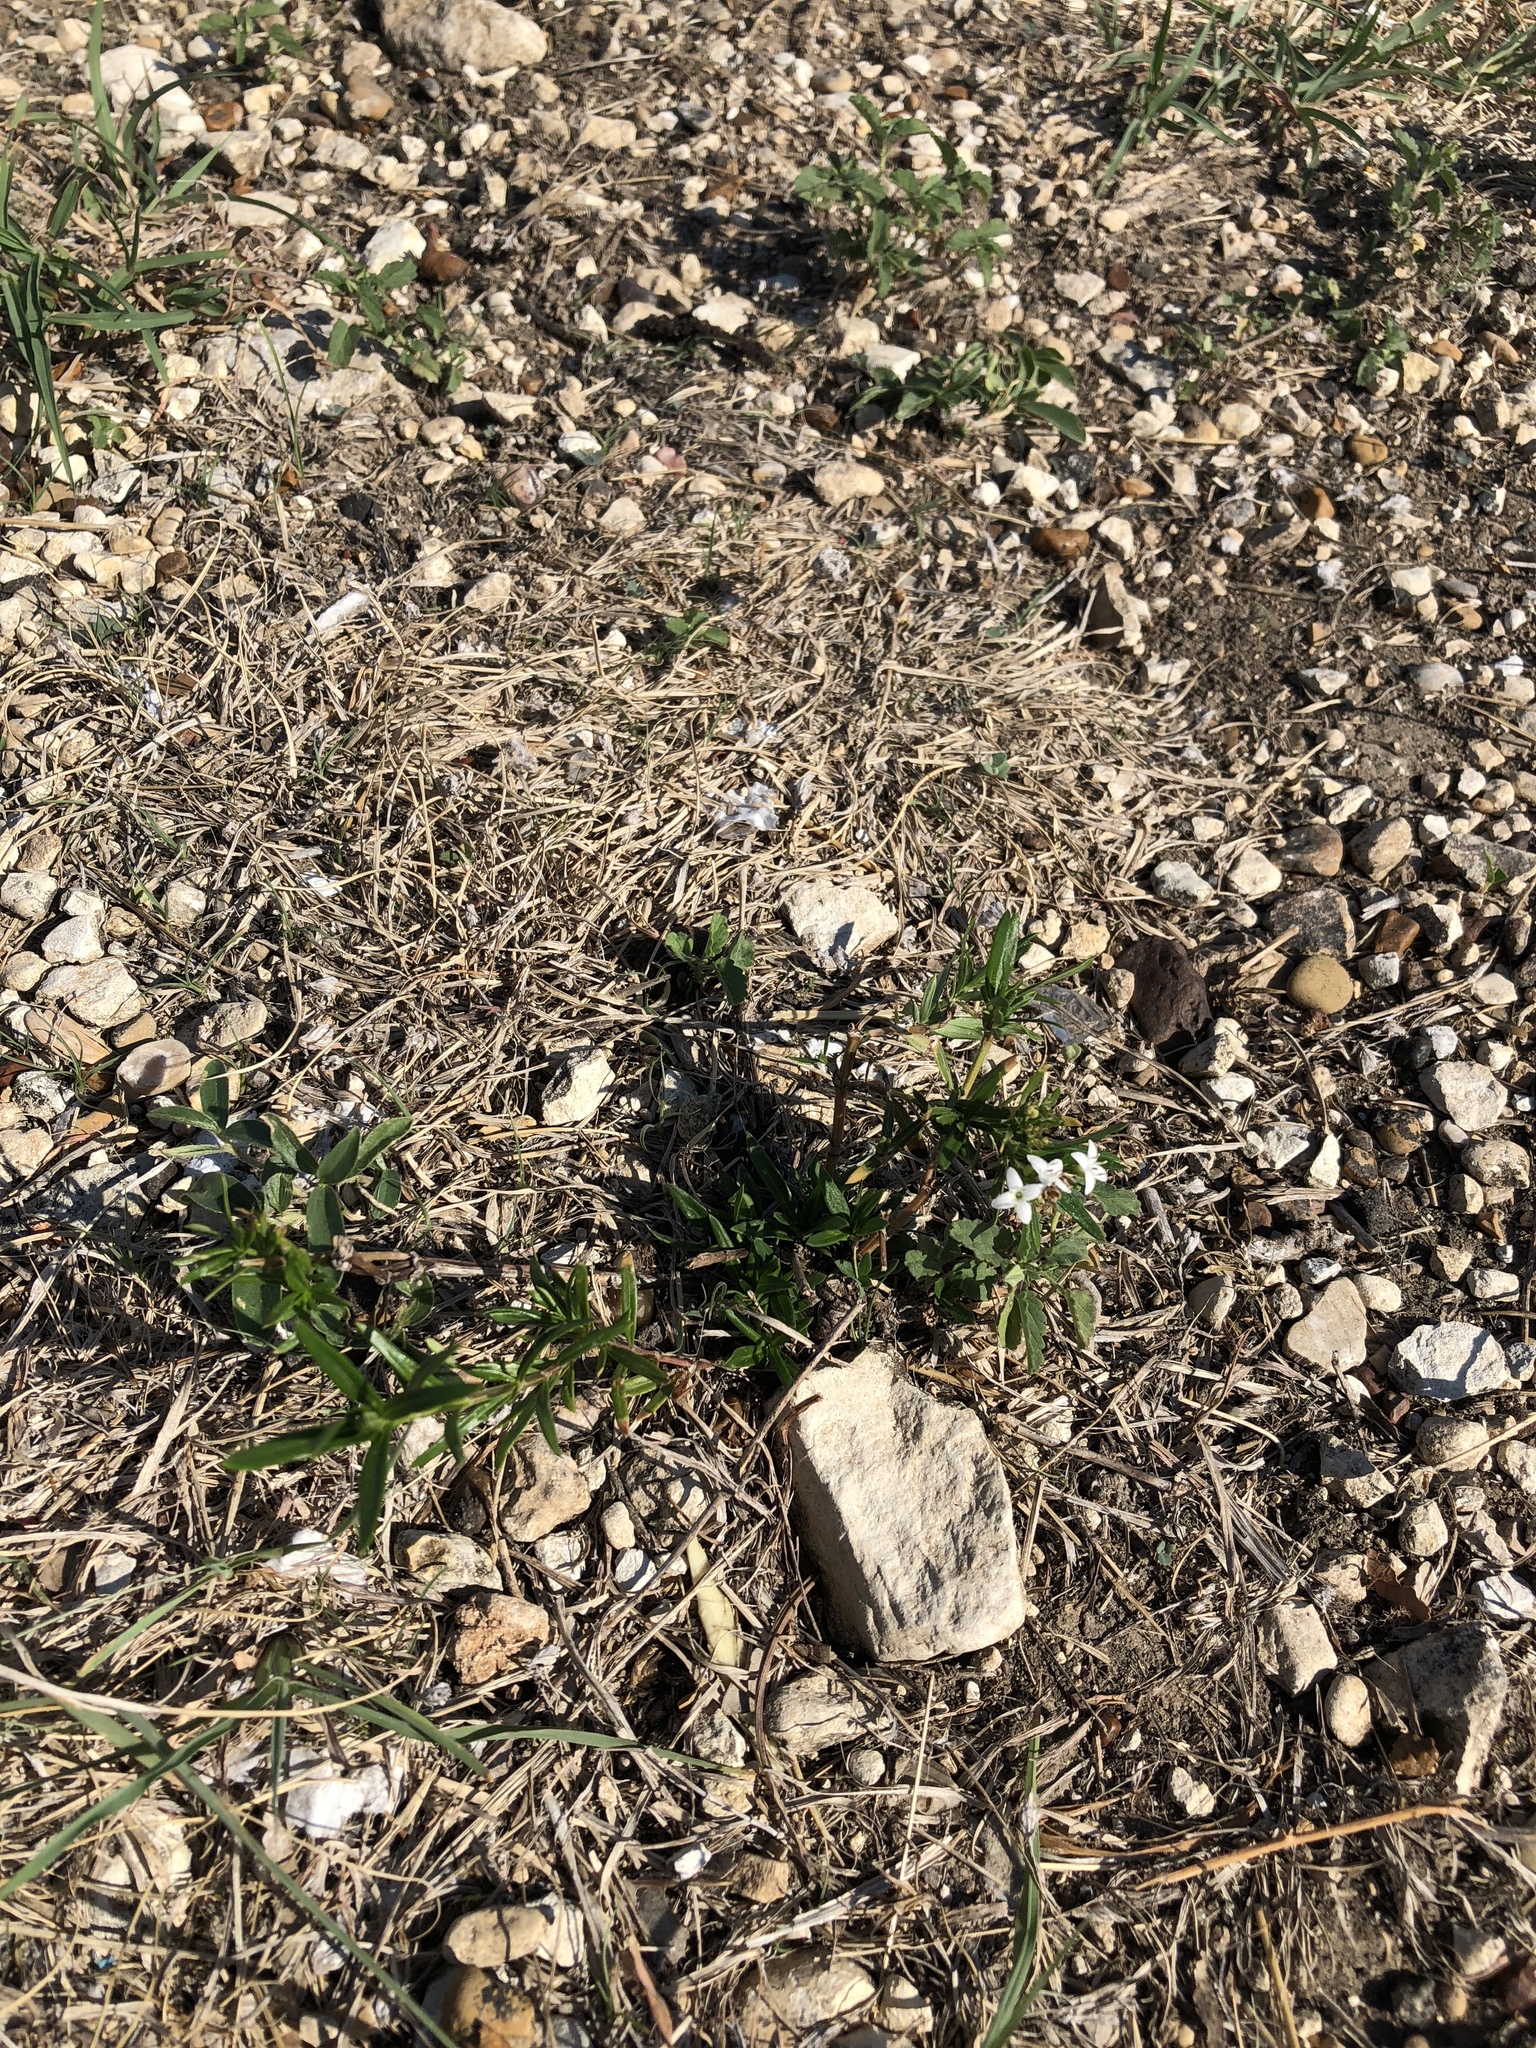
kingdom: Plantae
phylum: Tracheophyta
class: Magnoliopsida
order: Gentianales
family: Rubiaceae
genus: Stenaria
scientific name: Stenaria nigricans
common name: Diamondflowers
